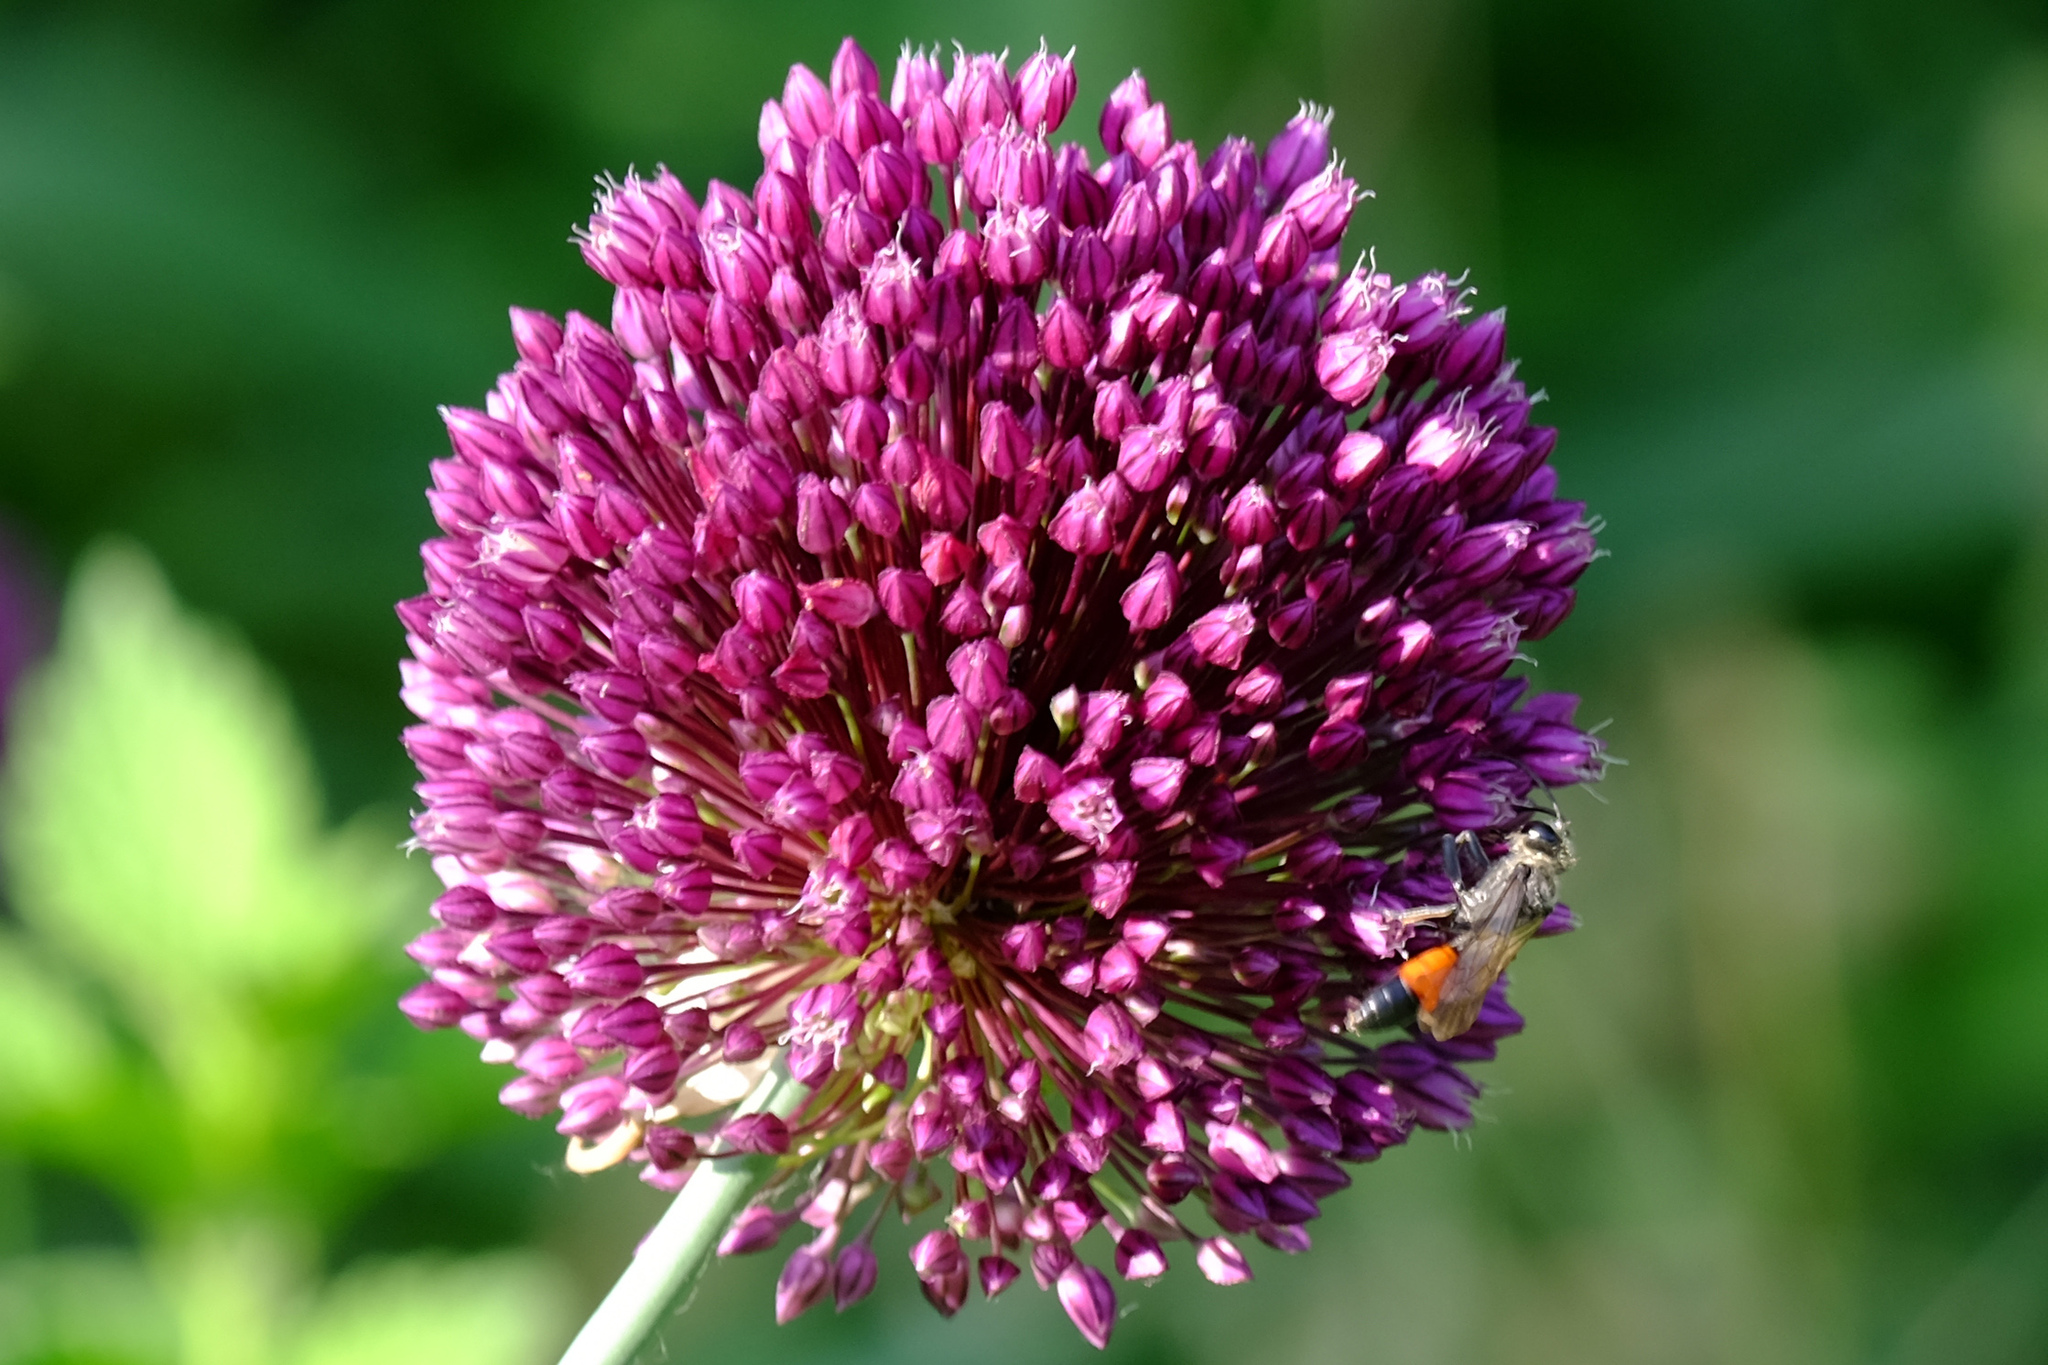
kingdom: Animalia
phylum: Arthropoda
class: Insecta
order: Hymenoptera
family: Sphecidae
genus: Sphex
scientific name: Sphex funerarius
